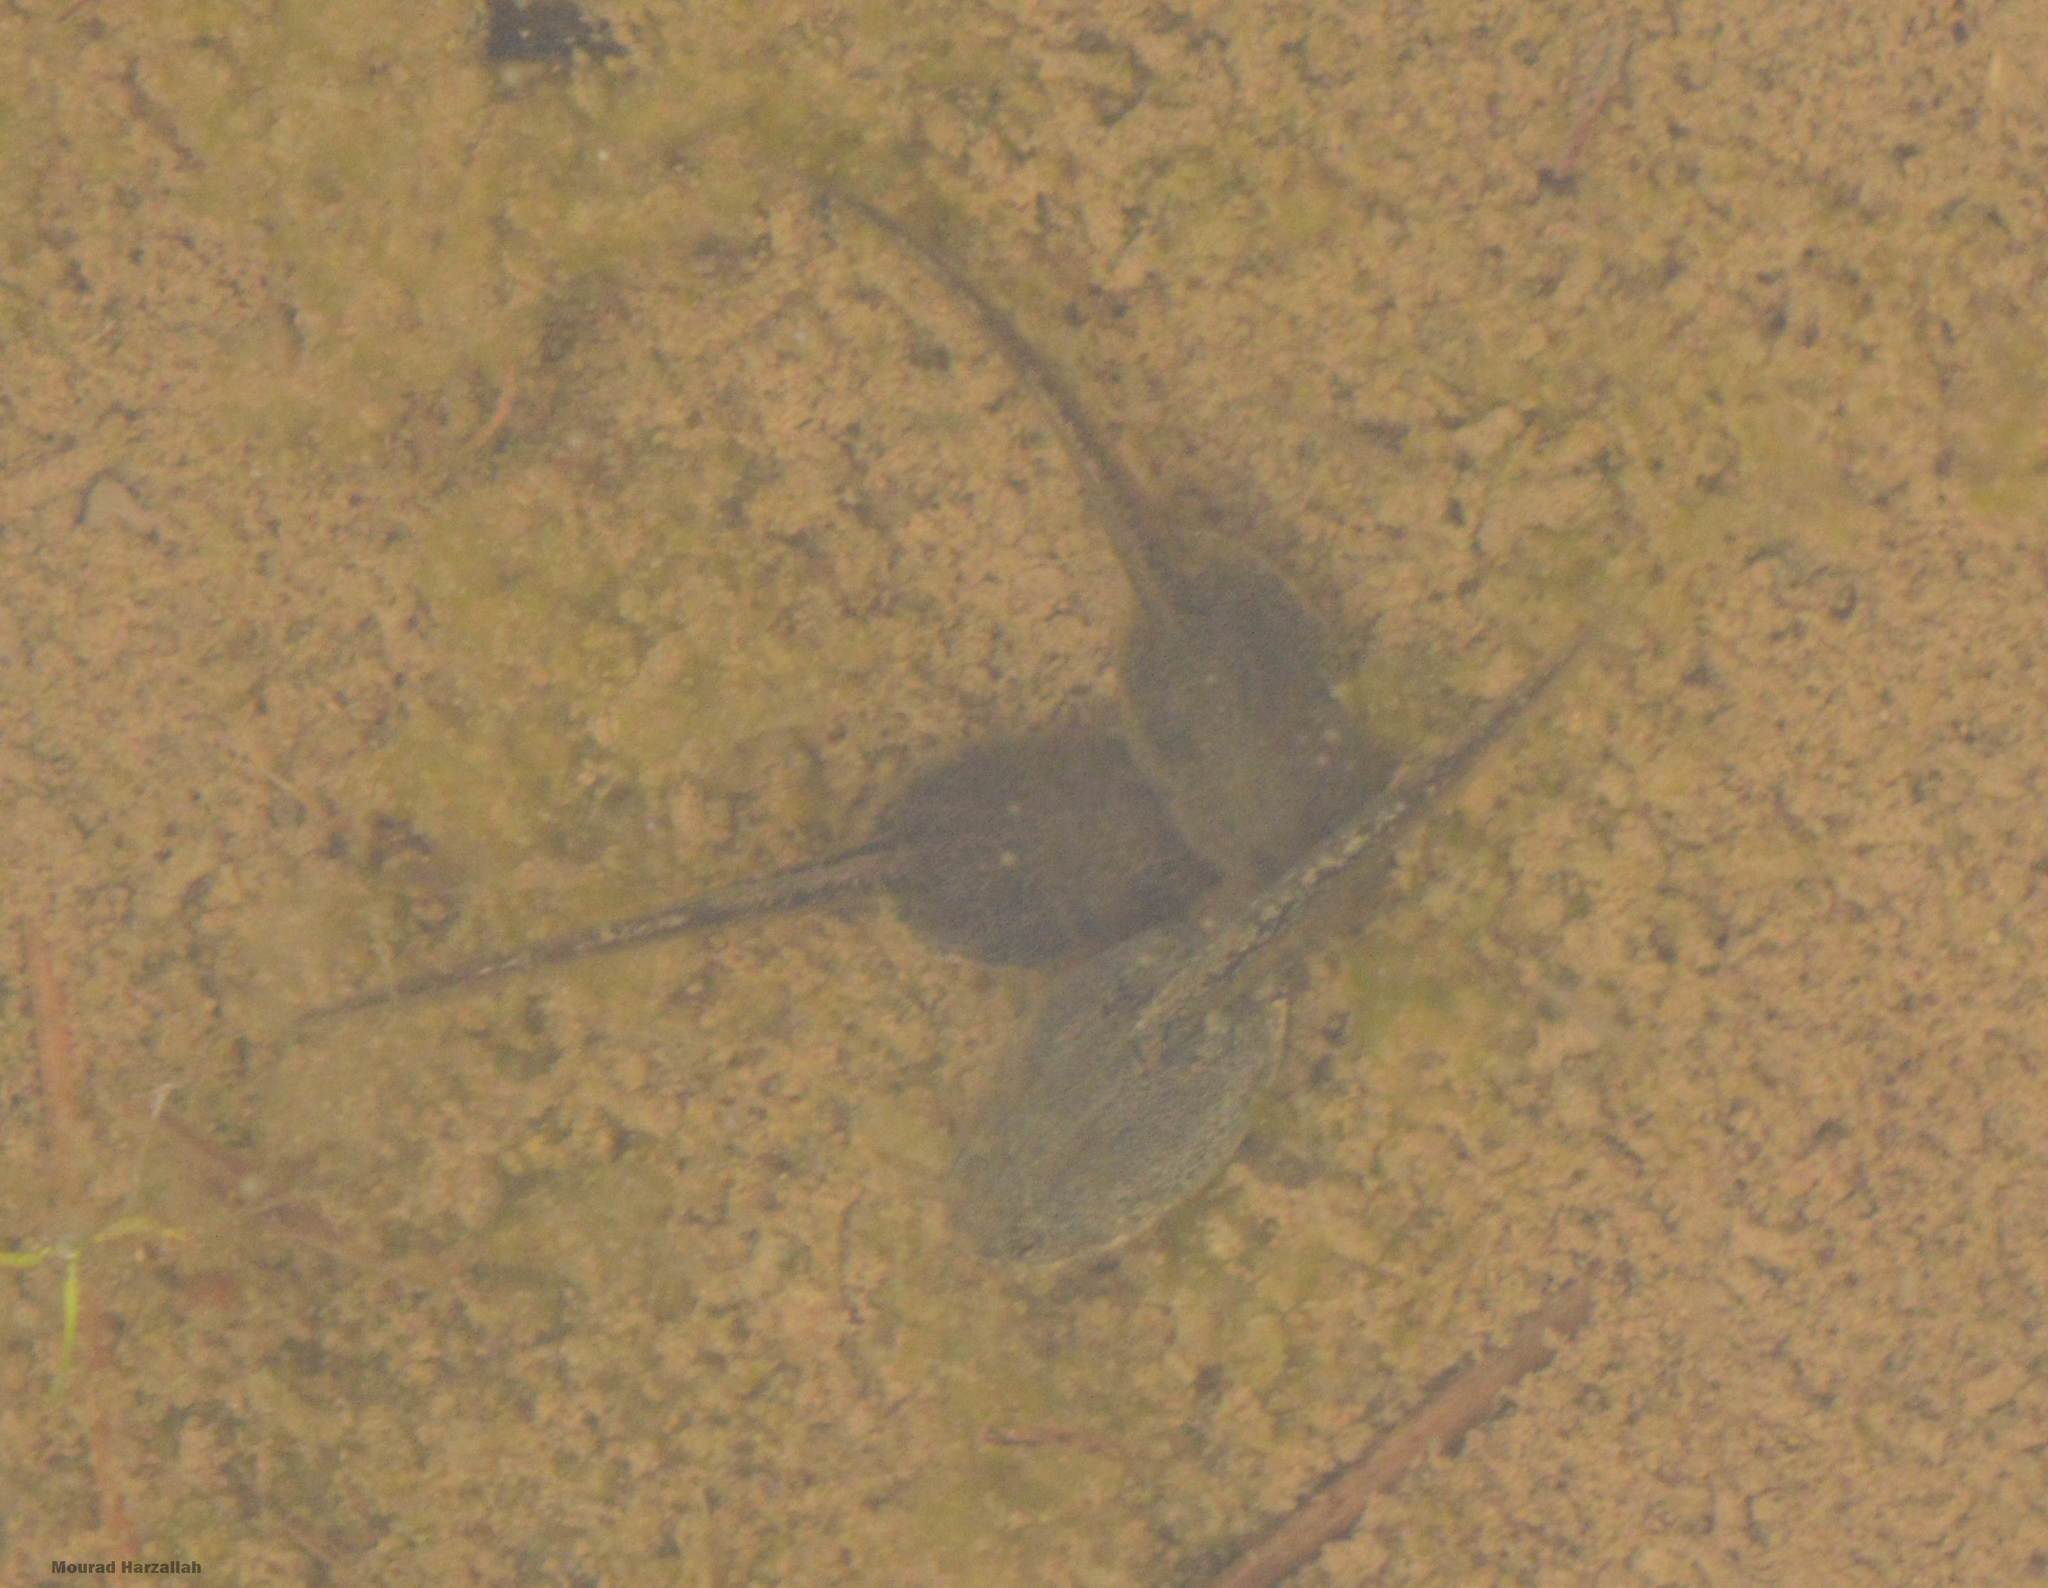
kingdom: Animalia
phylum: Chordata
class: Amphibia
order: Anura
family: Hylidae
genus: Hyla
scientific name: Hyla meridionalis
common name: Stripeless tree frog
